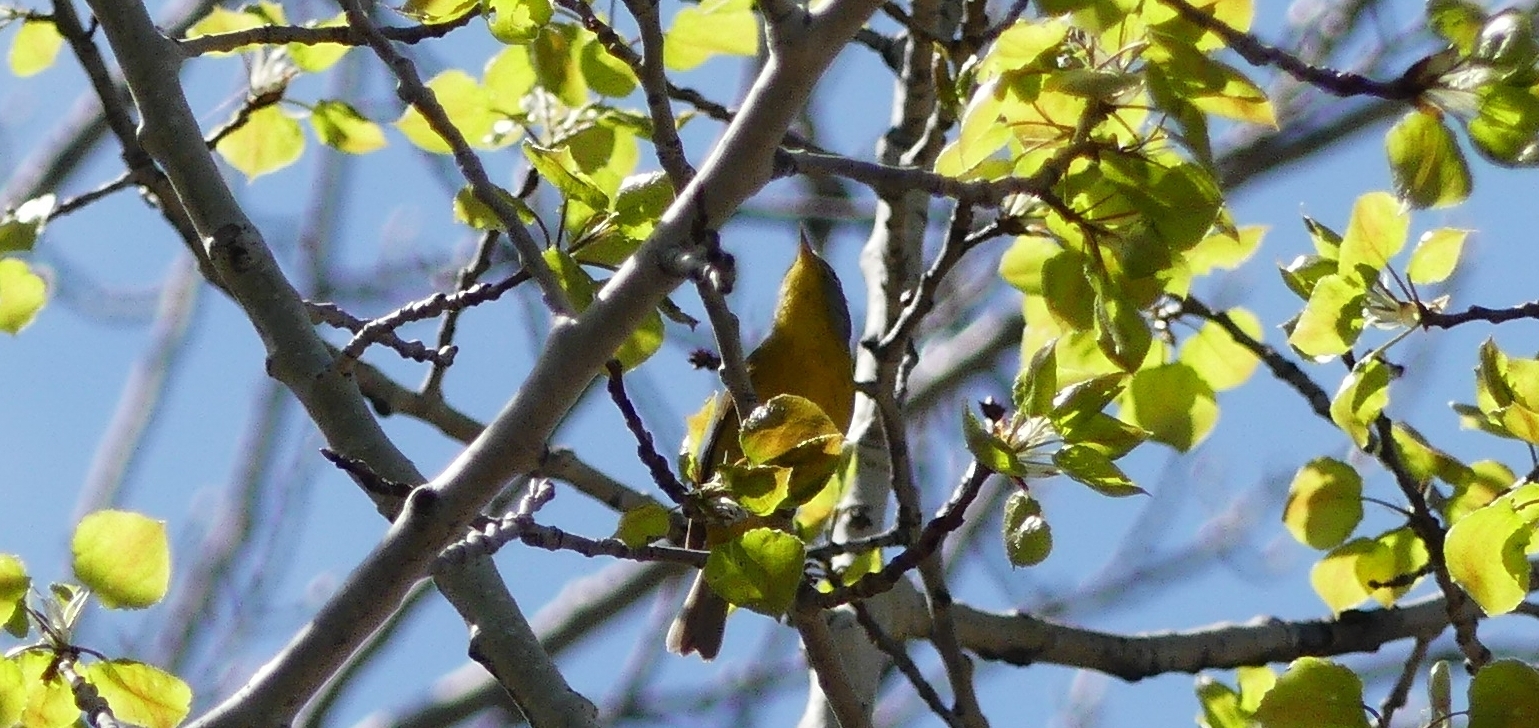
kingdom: Animalia
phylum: Chordata
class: Aves
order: Passeriformes
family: Parulidae
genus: Leiothlypis
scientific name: Leiothlypis ruficapilla
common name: Nashville warbler
